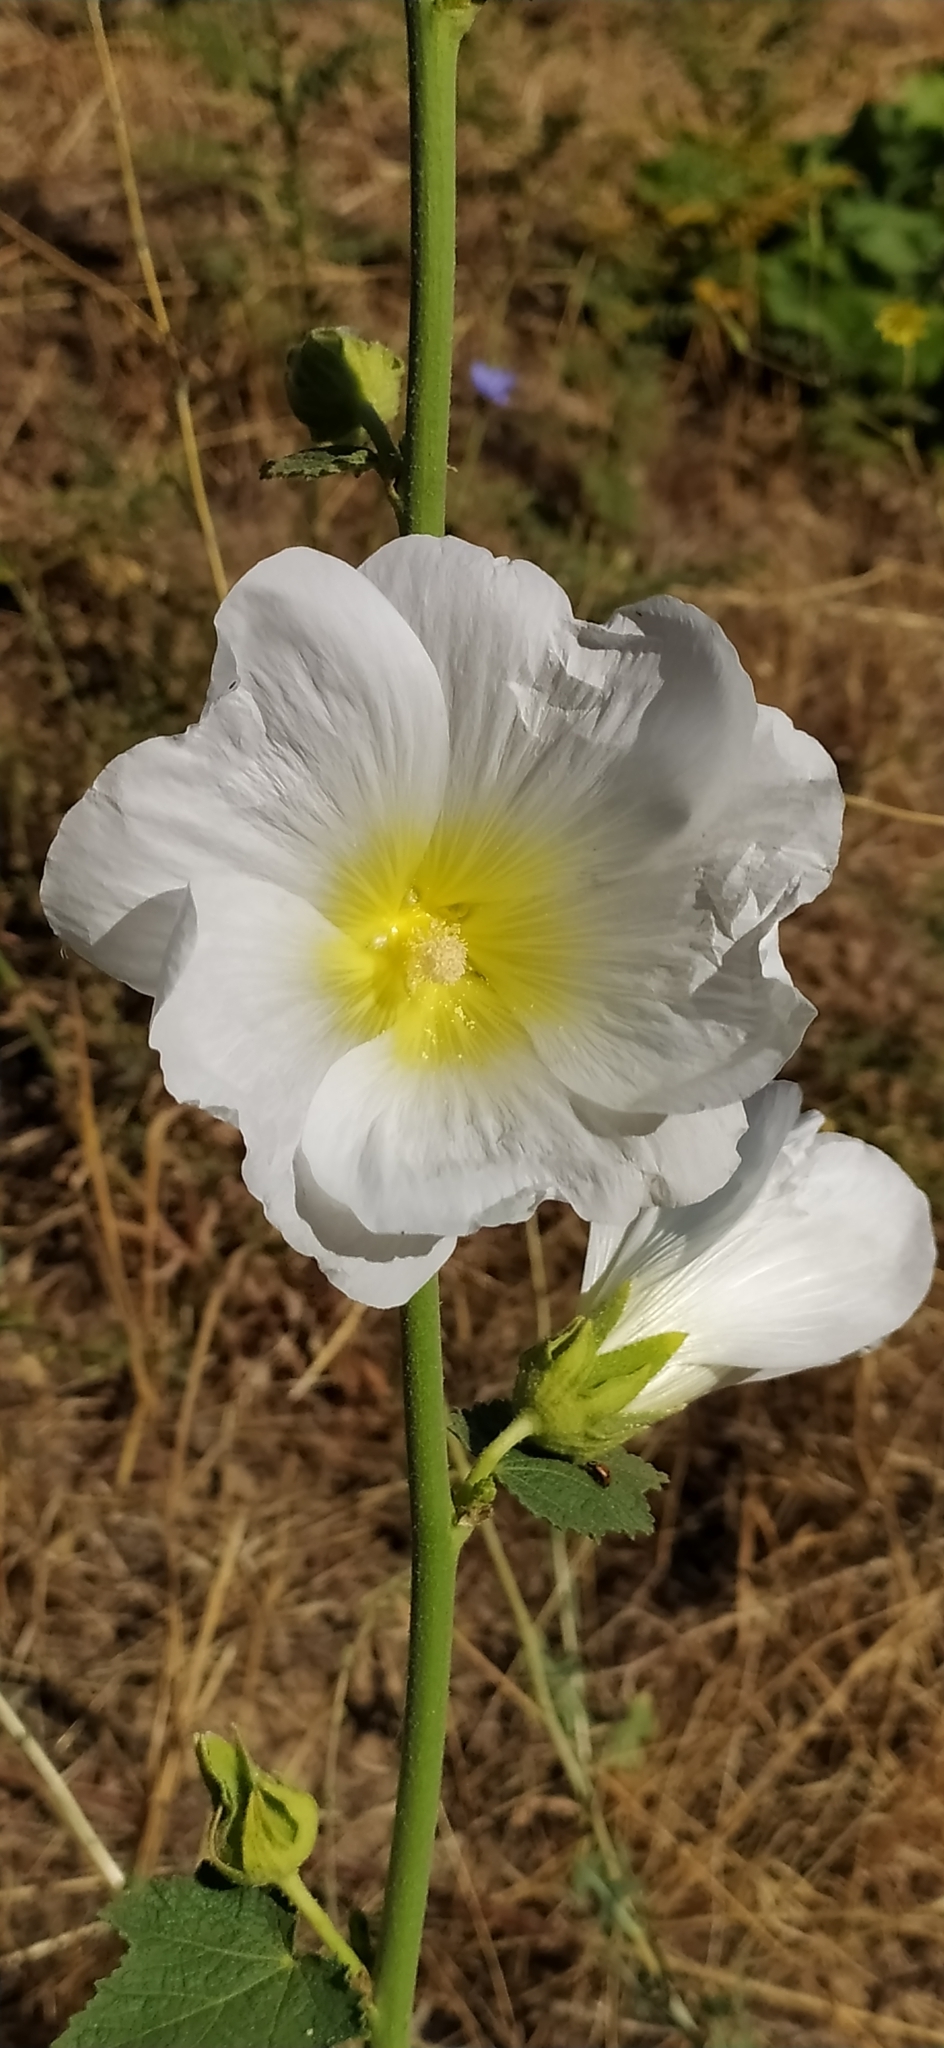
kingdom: Plantae
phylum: Tracheophyta
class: Magnoliopsida
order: Malvales
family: Malvaceae
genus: Alcea
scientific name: Alcea nudiflora
